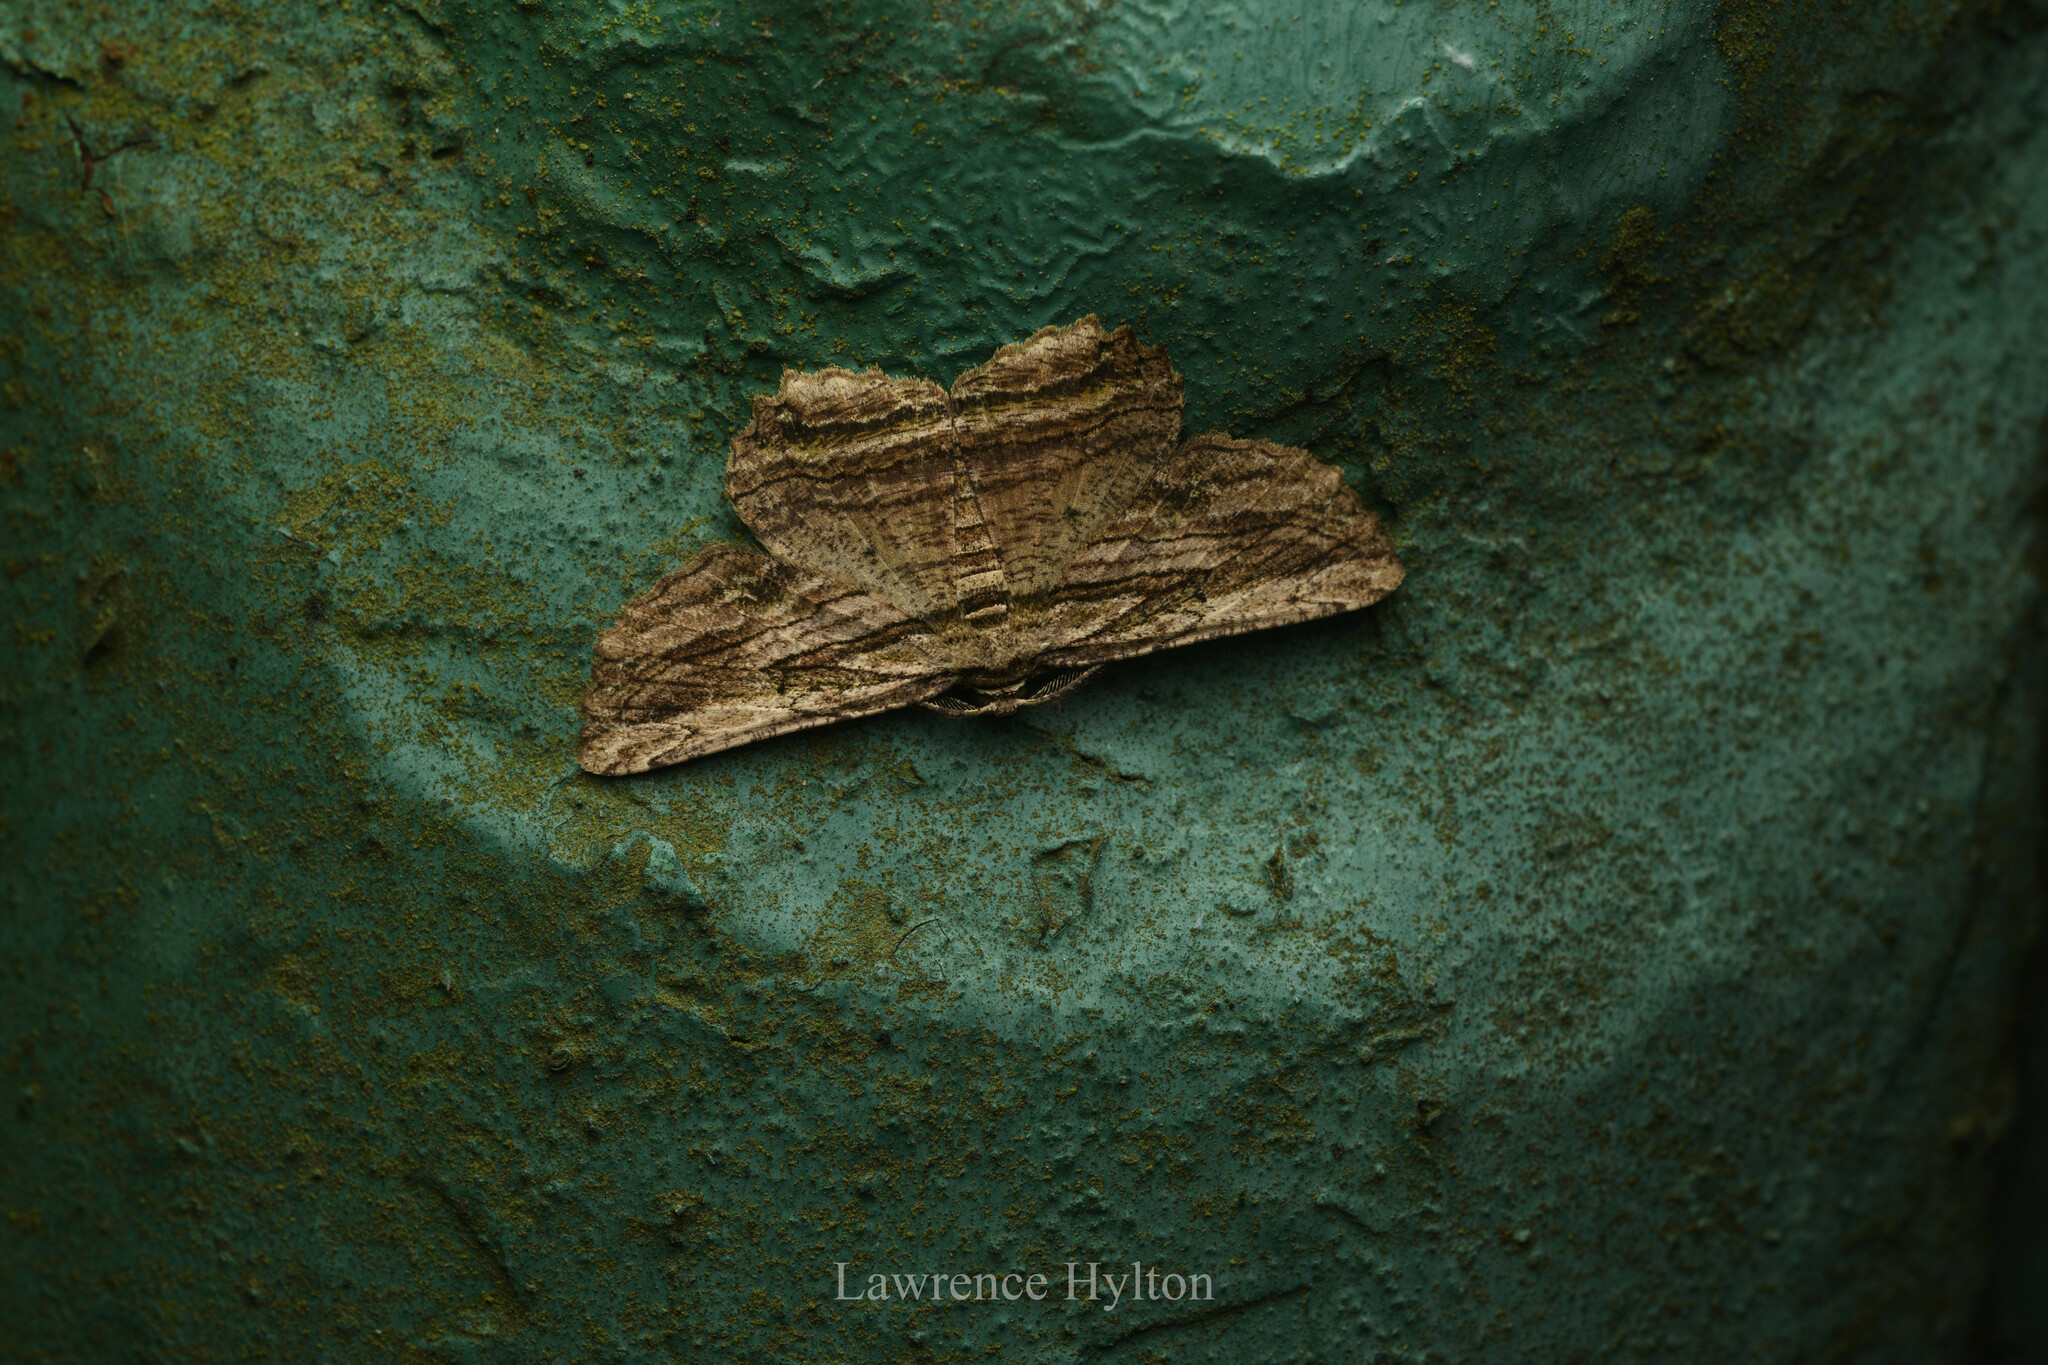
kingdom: Animalia
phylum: Arthropoda
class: Insecta
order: Lepidoptera
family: Geometridae
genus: Menophra
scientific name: Menophra subterminalis
